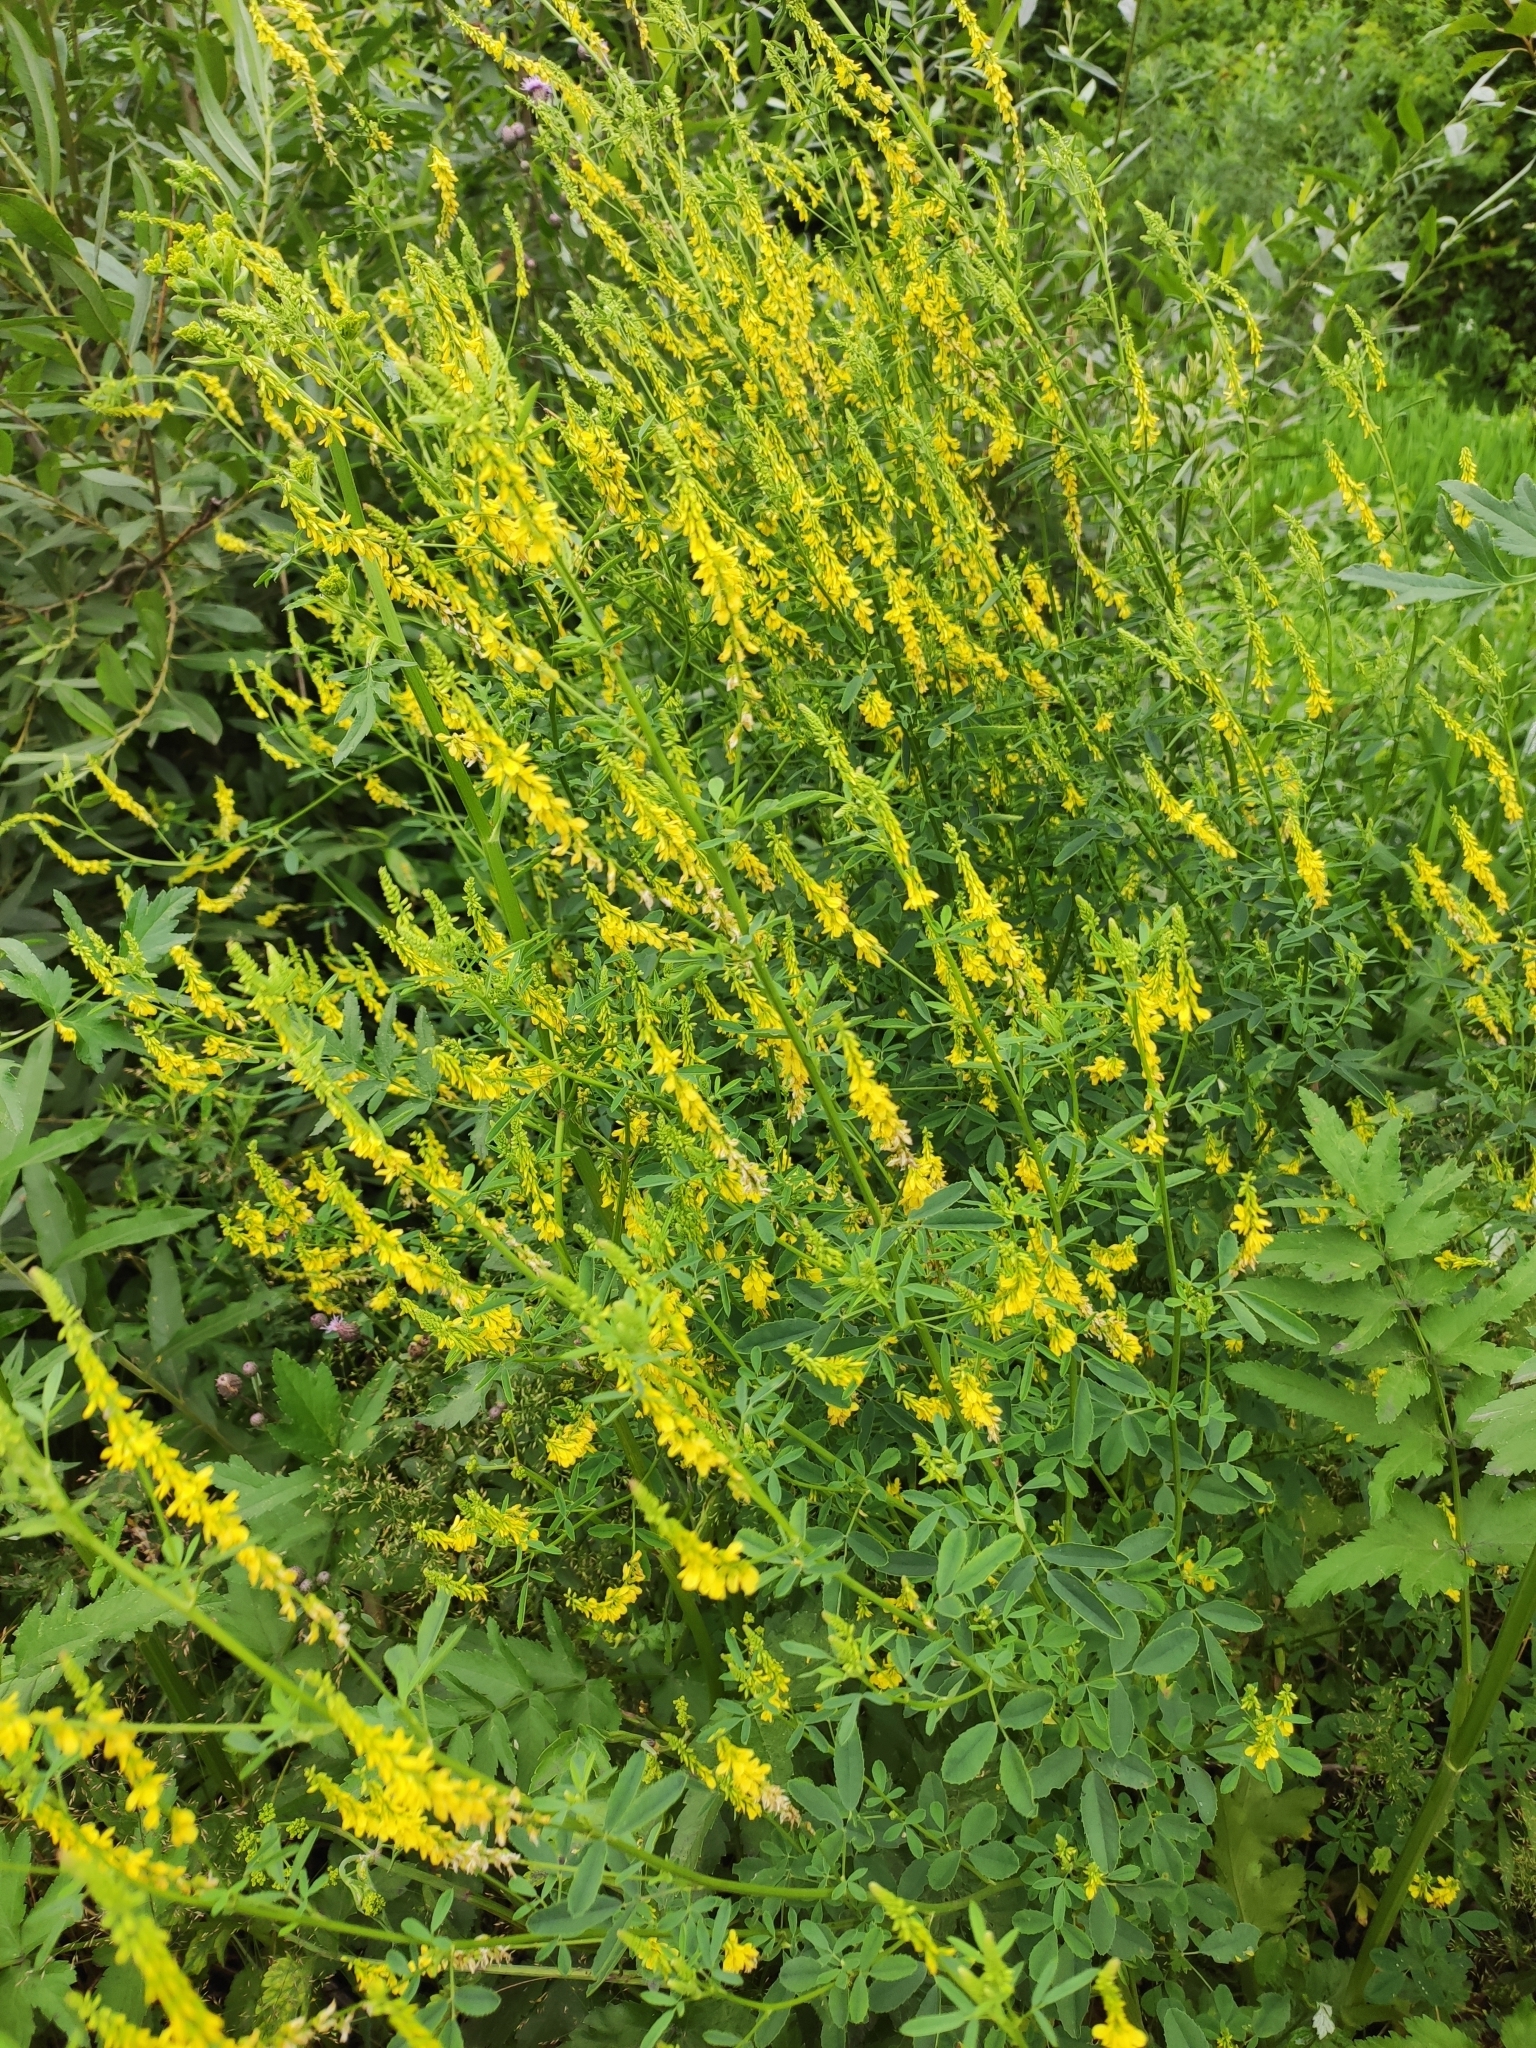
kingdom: Plantae
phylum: Tracheophyta
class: Magnoliopsida
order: Fabales
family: Fabaceae
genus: Melilotus
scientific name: Melilotus officinalis
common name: Sweetclover
